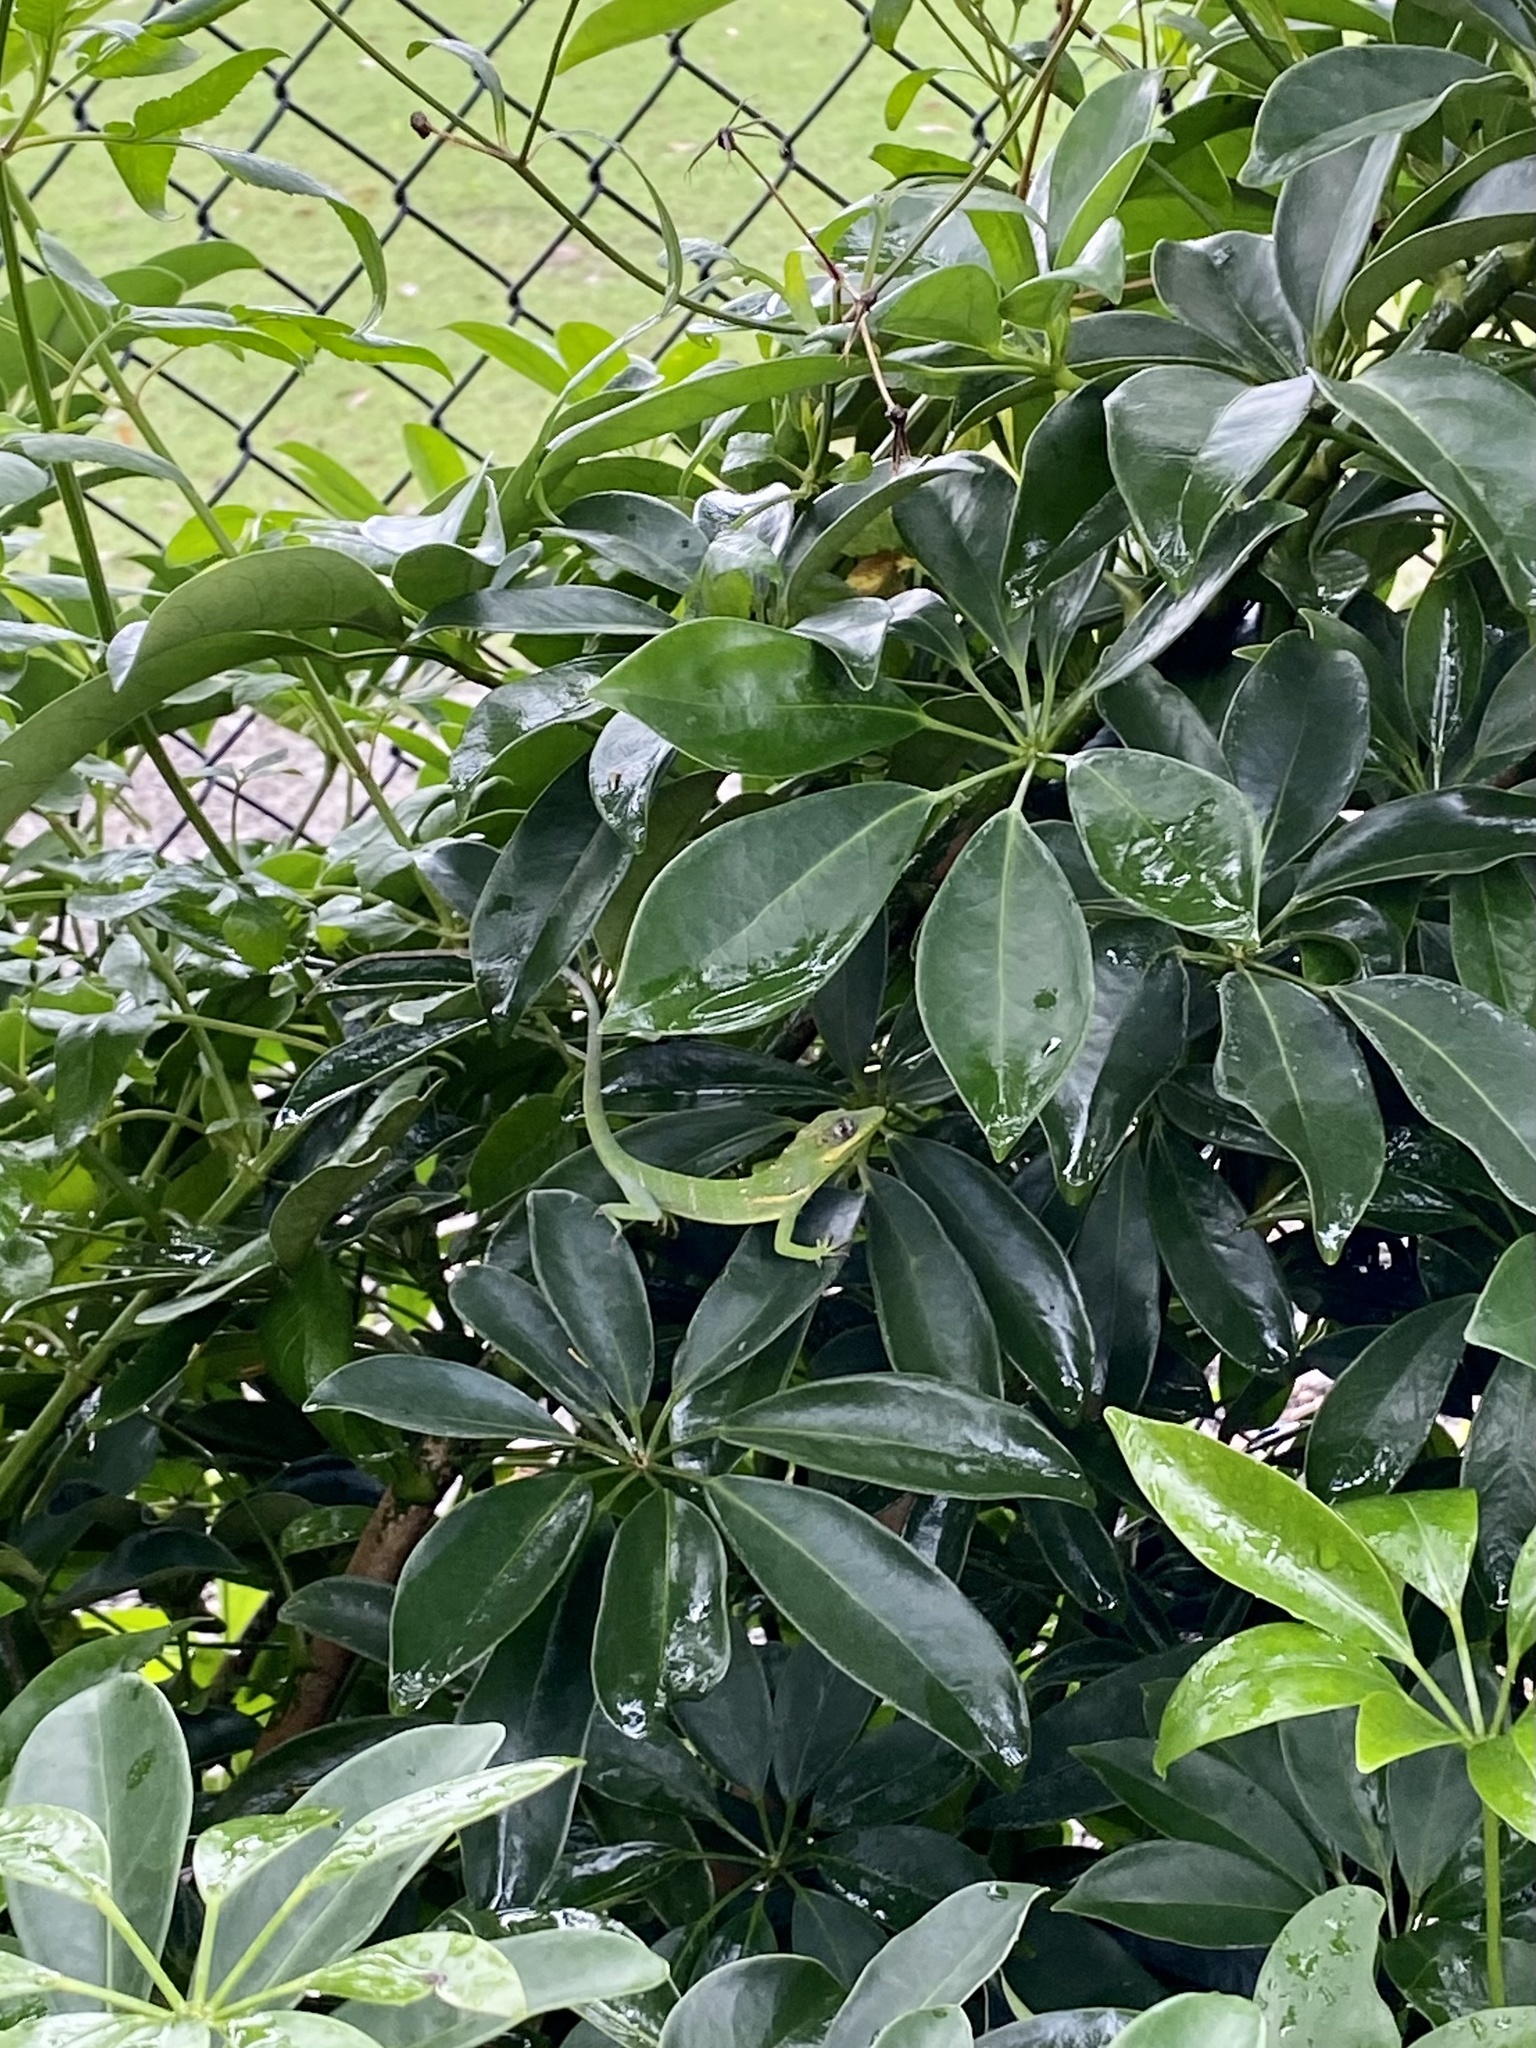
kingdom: Animalia
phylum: Chordata
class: Squamata
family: Dactyloidae
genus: Anolis
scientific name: Anolis equestris
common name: Knight anole
